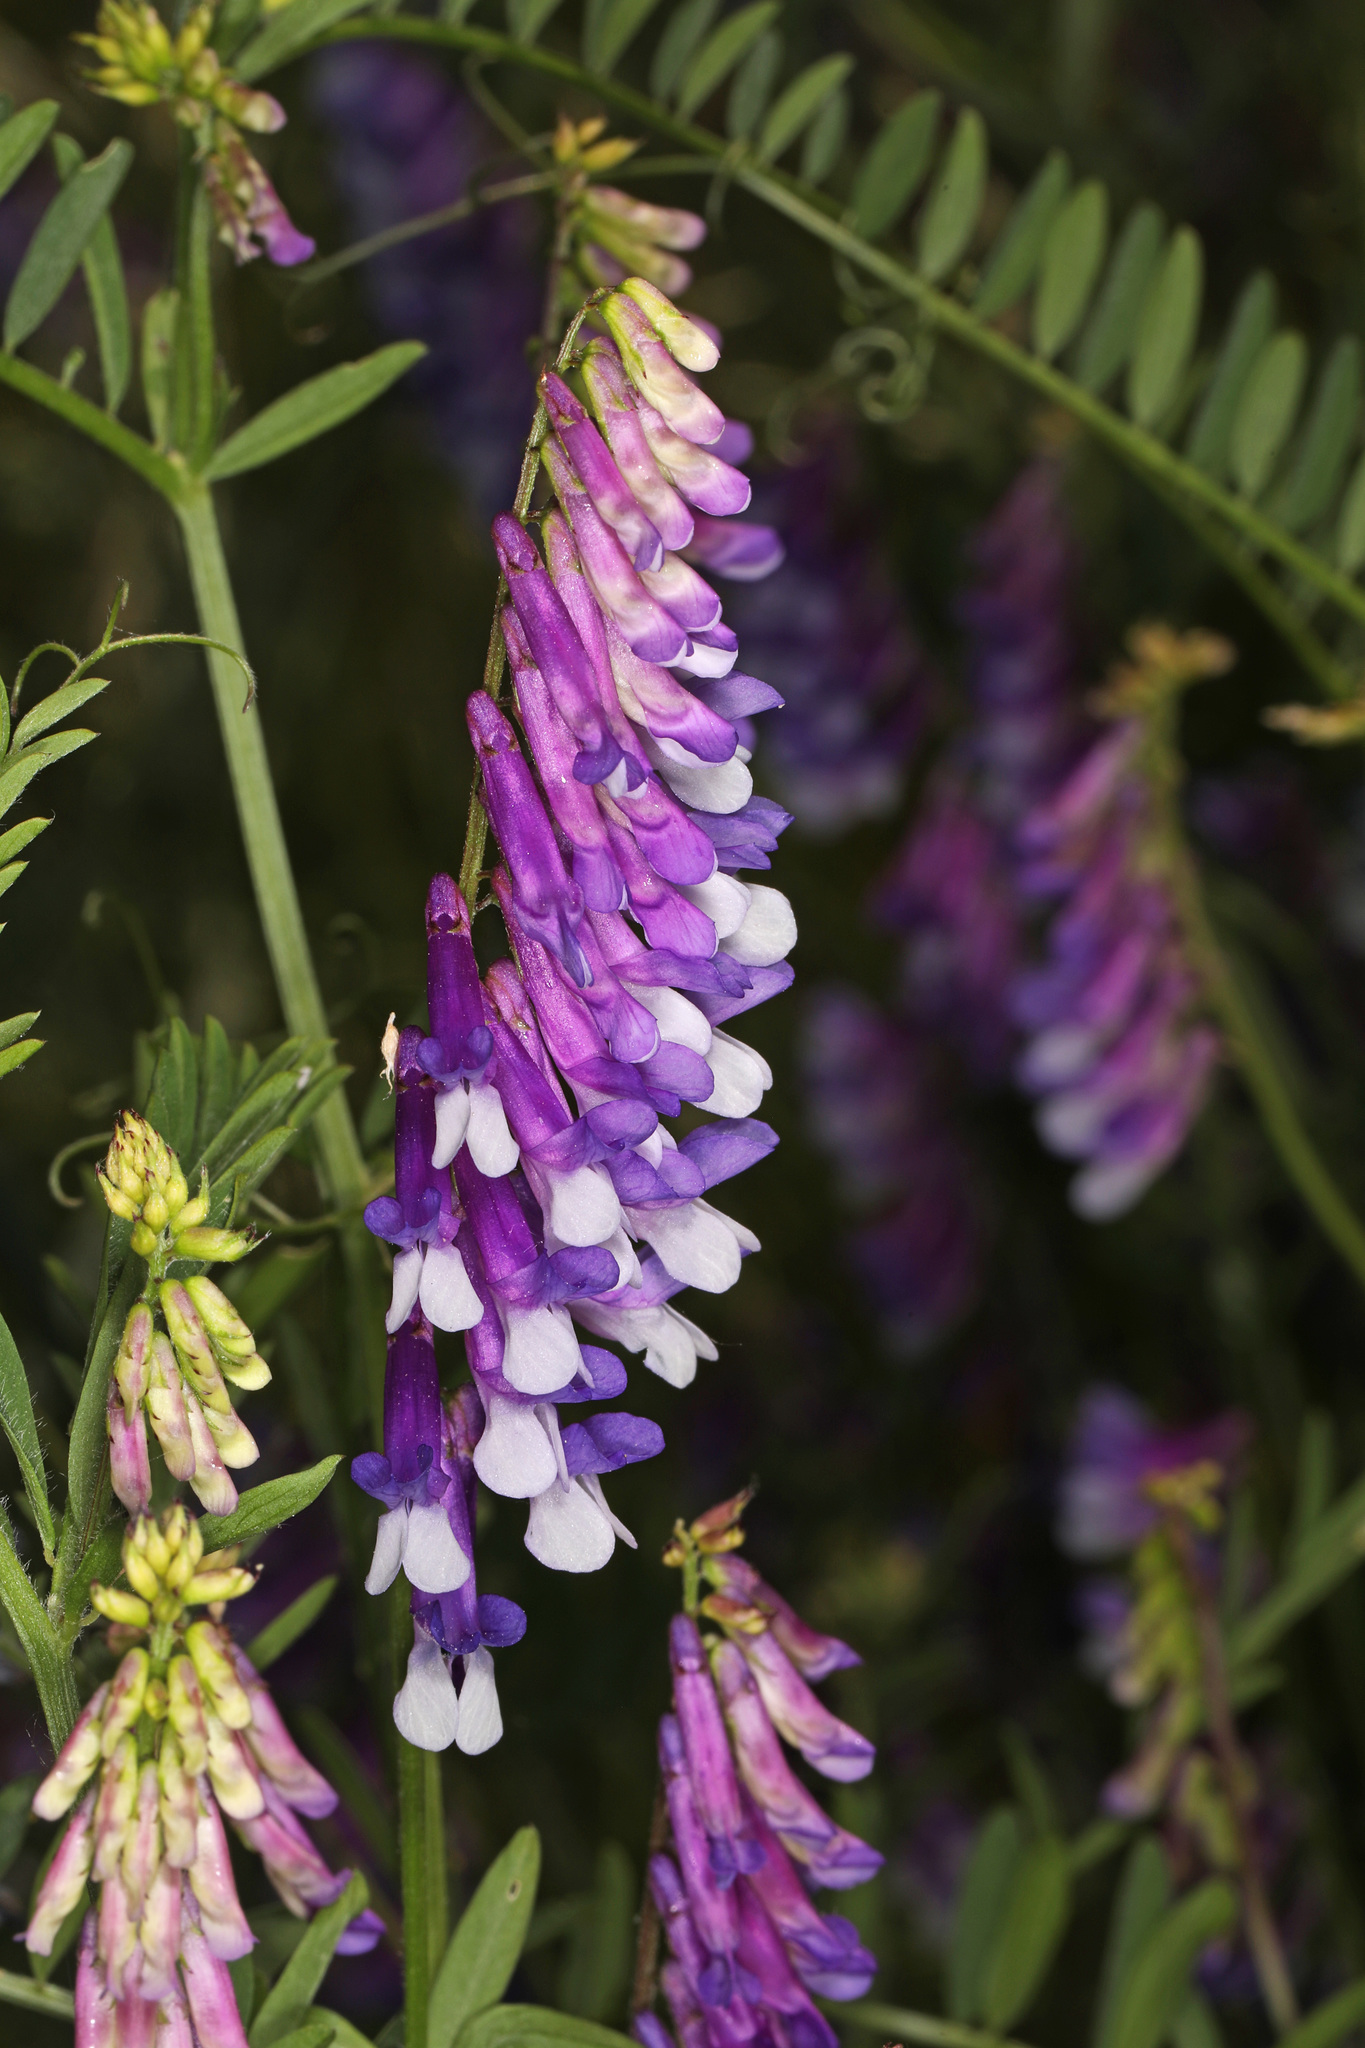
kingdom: Plantae
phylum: Tracheophyta
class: Magnoliopsida
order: Fabales
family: Fabaceae
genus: Vicia
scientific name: Vicia villosa
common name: Fodder vetch
